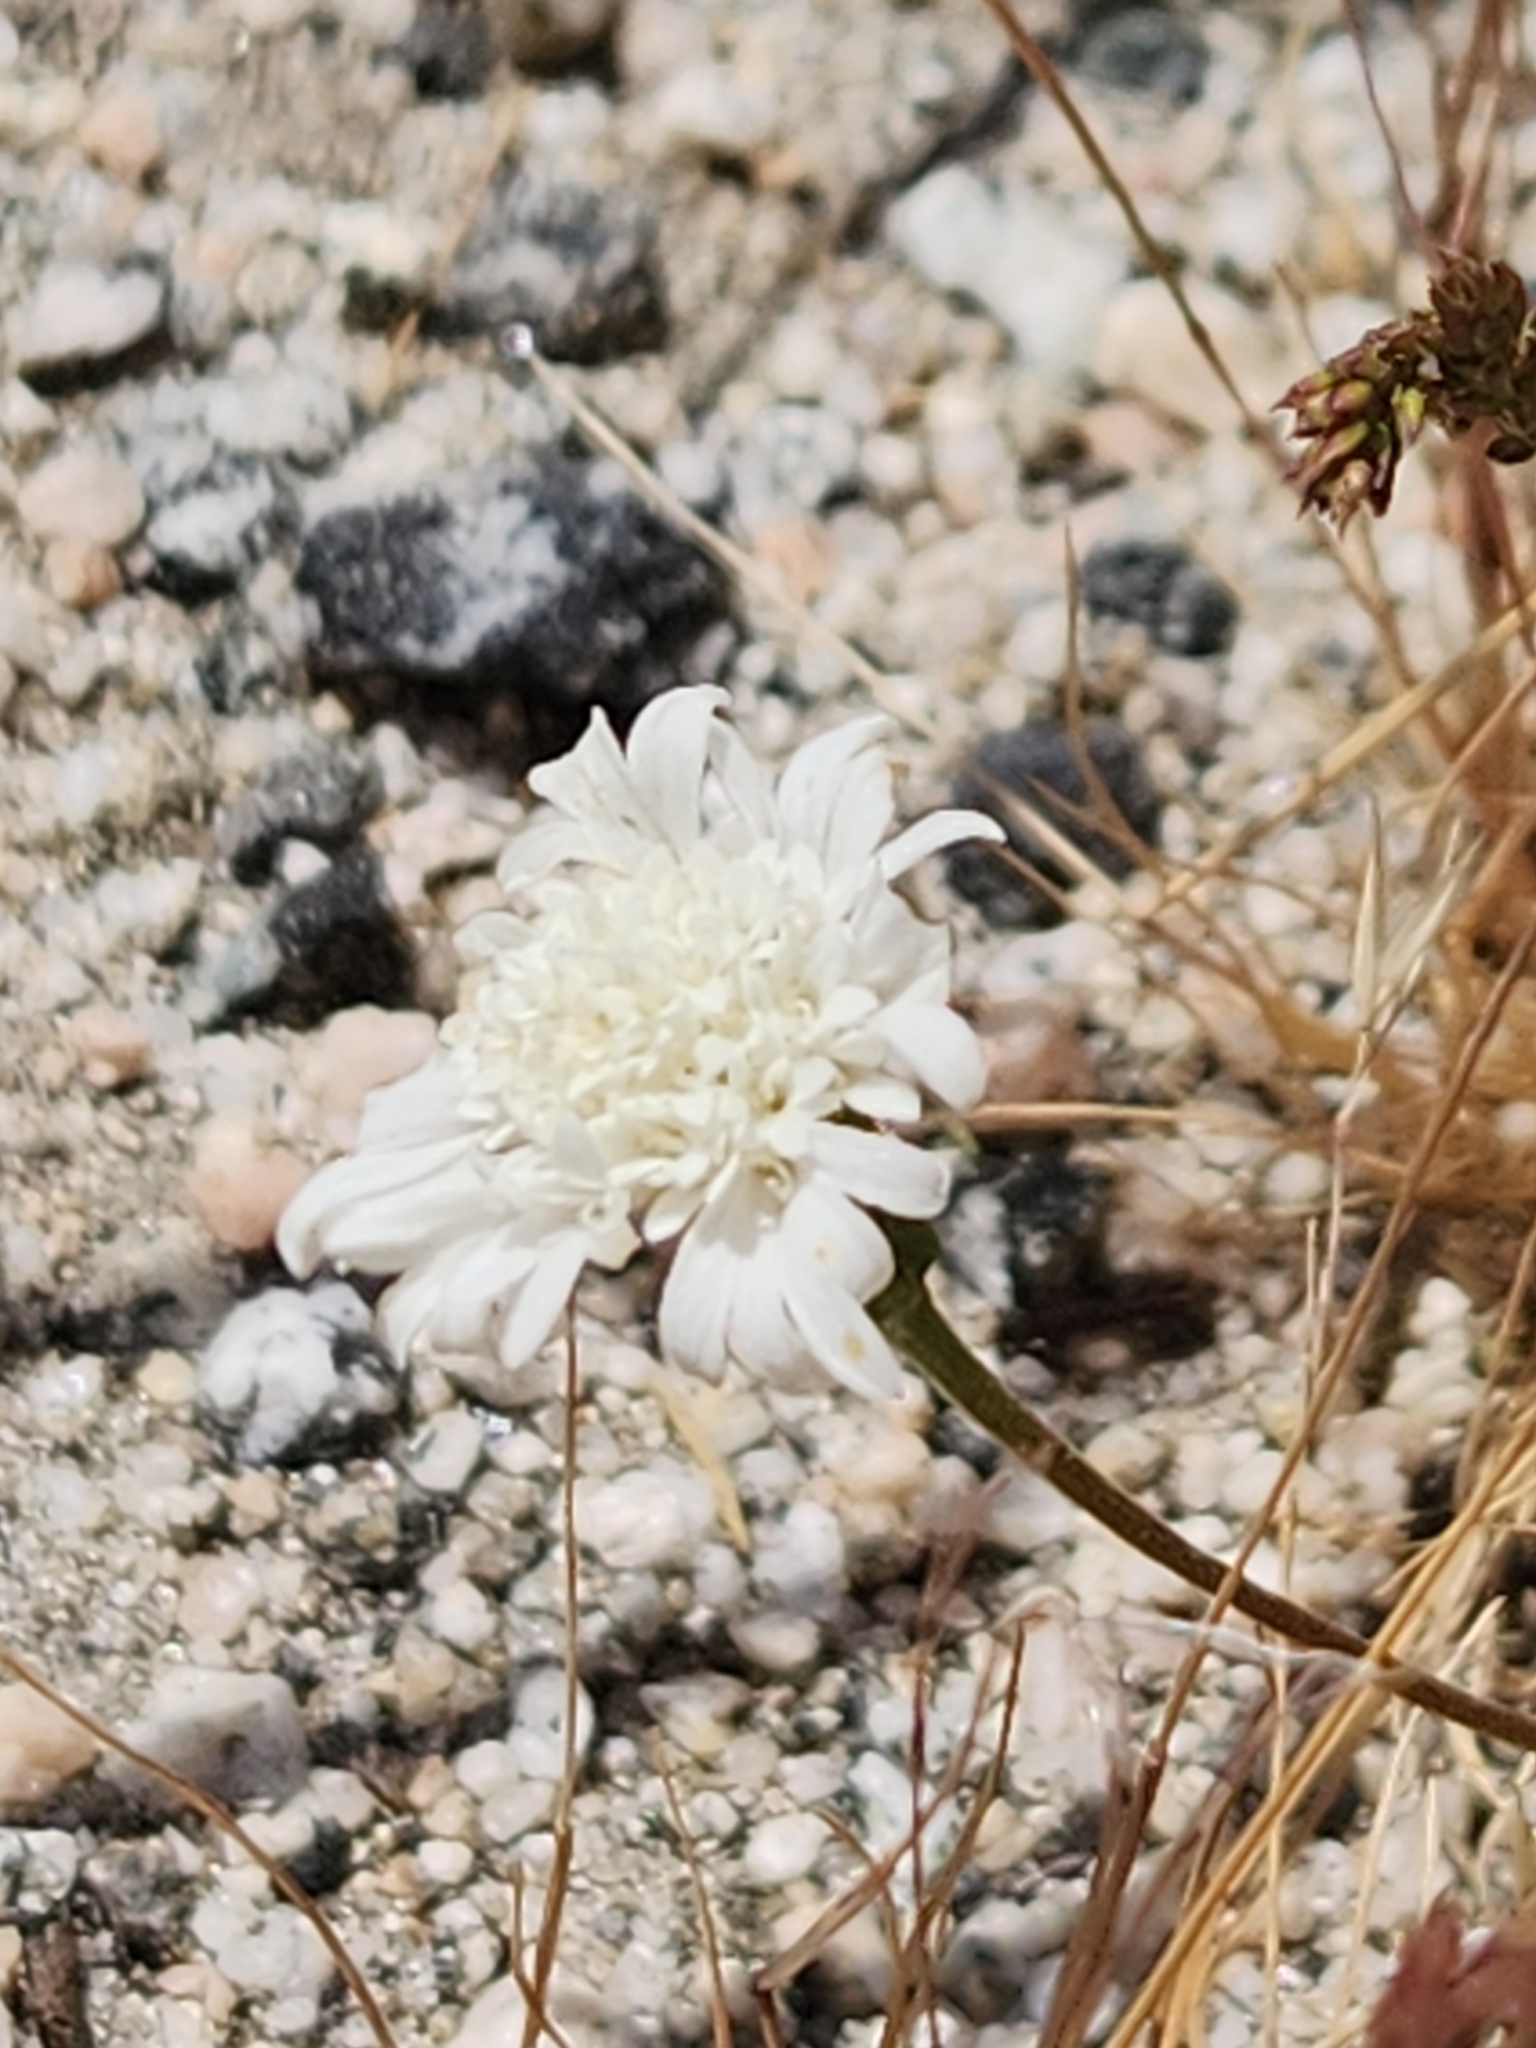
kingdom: Plantae
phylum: Tracheophyta
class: Magnoliopsida
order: Asterales
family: Asteraceae
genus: Chaenactis
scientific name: Chaenactis fremontii
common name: Fremont pincushion
